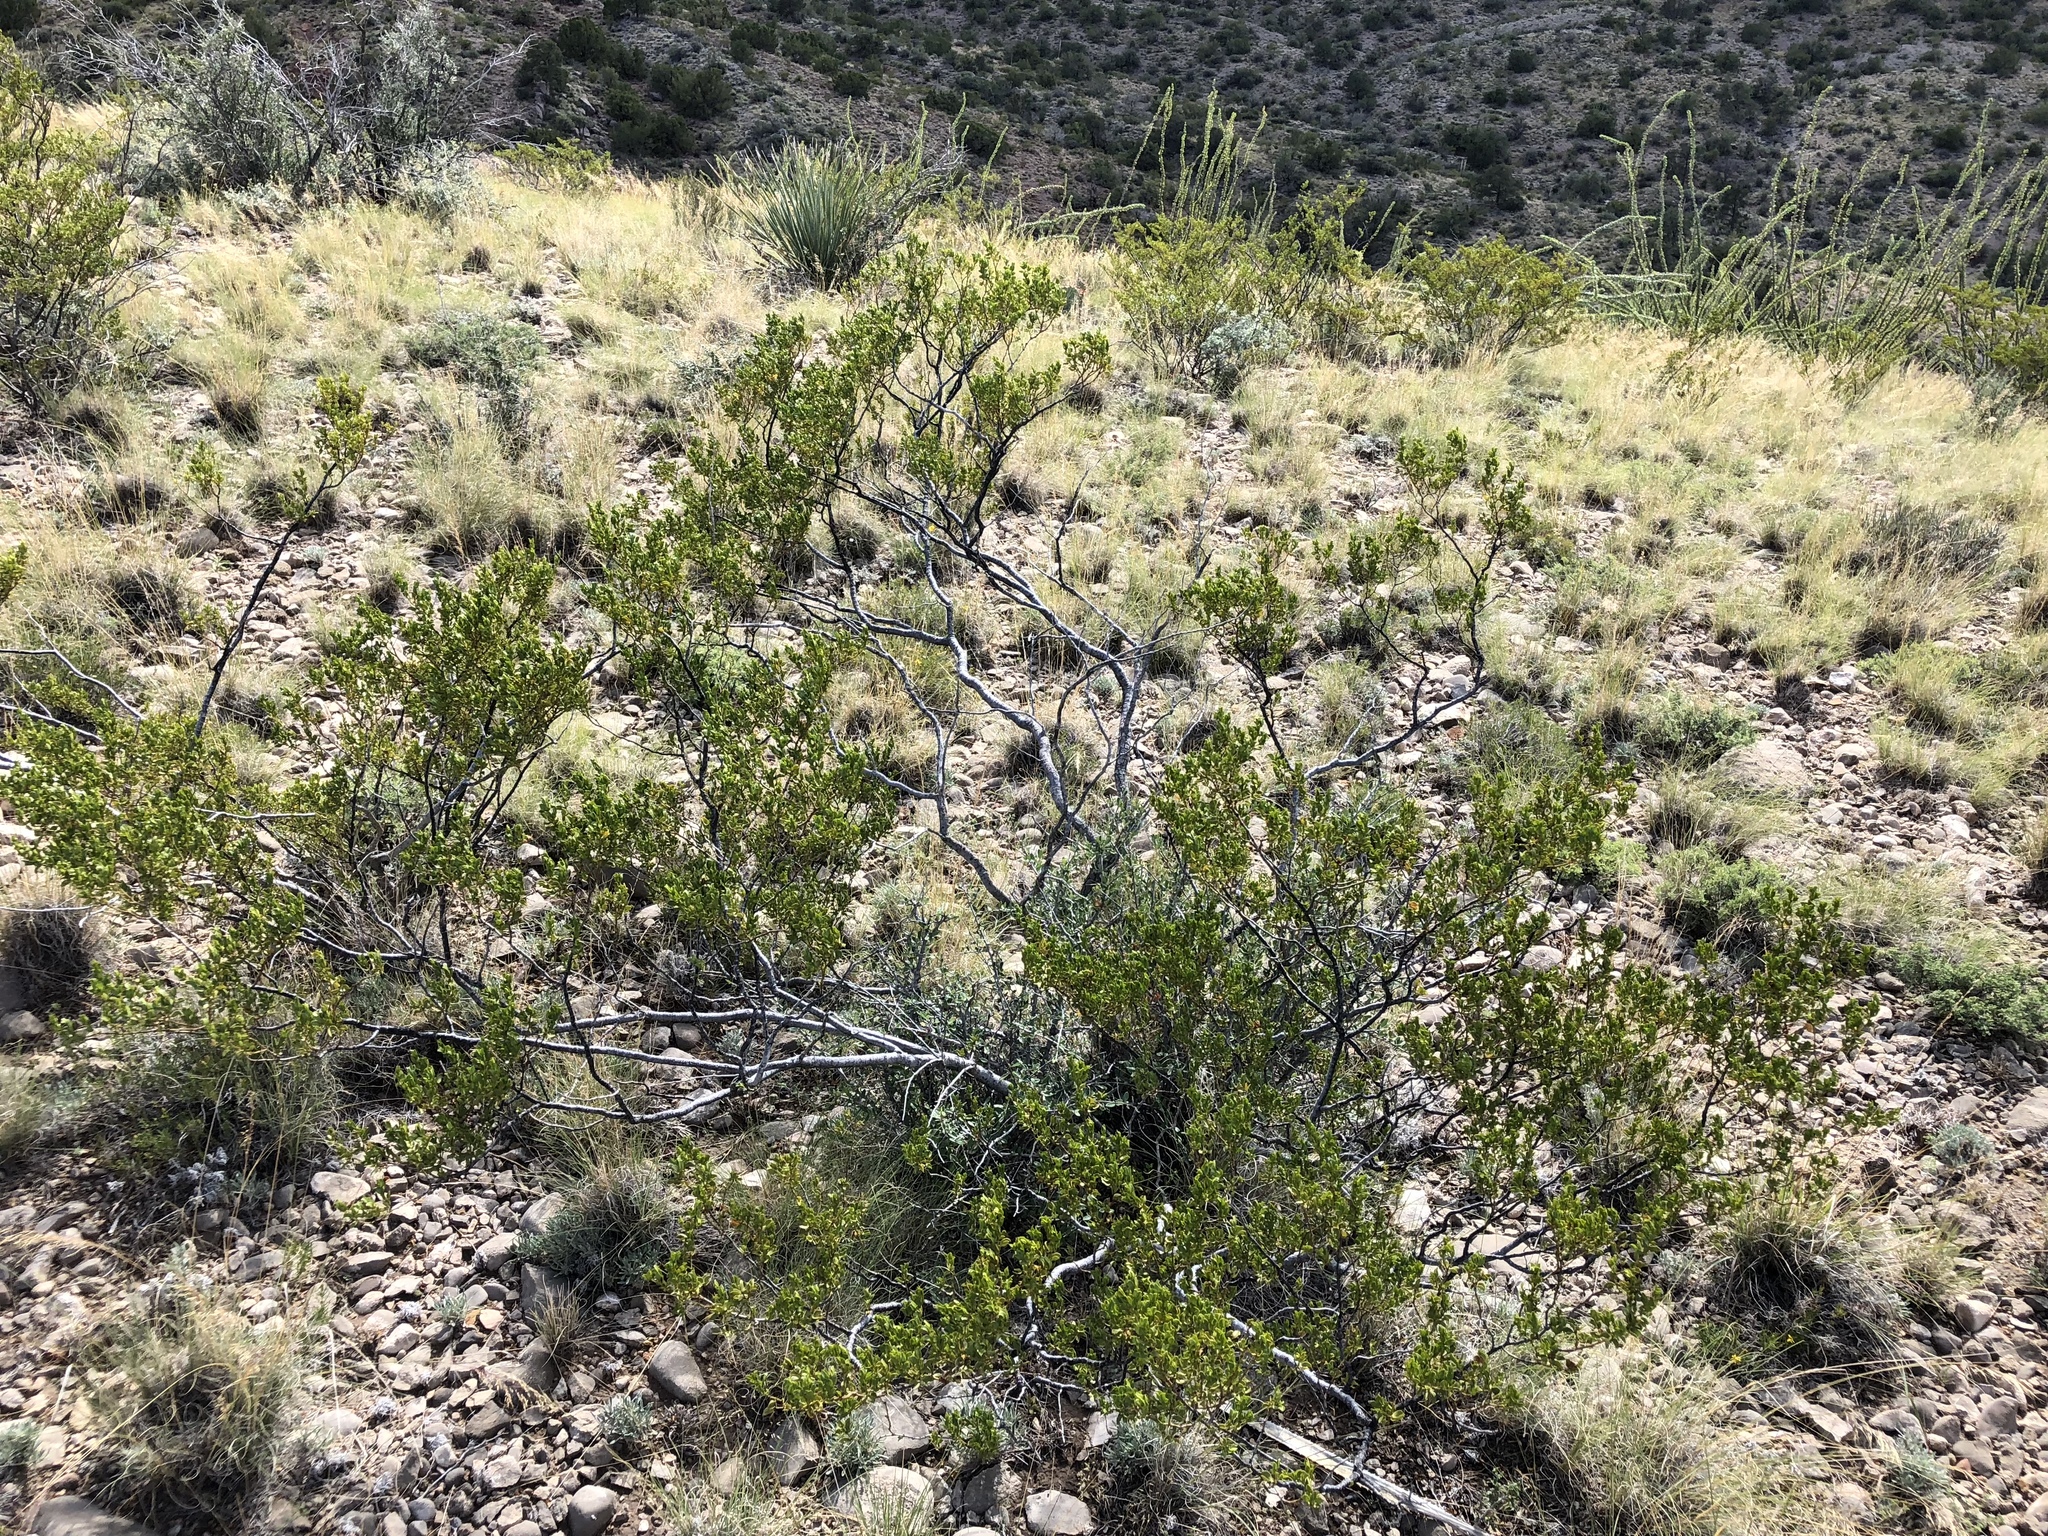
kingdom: Plantae
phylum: Tracheophyta
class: Magnoliopsida
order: Zygophyllales
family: Zygophyllaceae
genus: Larrea
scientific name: Larrea tridentata
